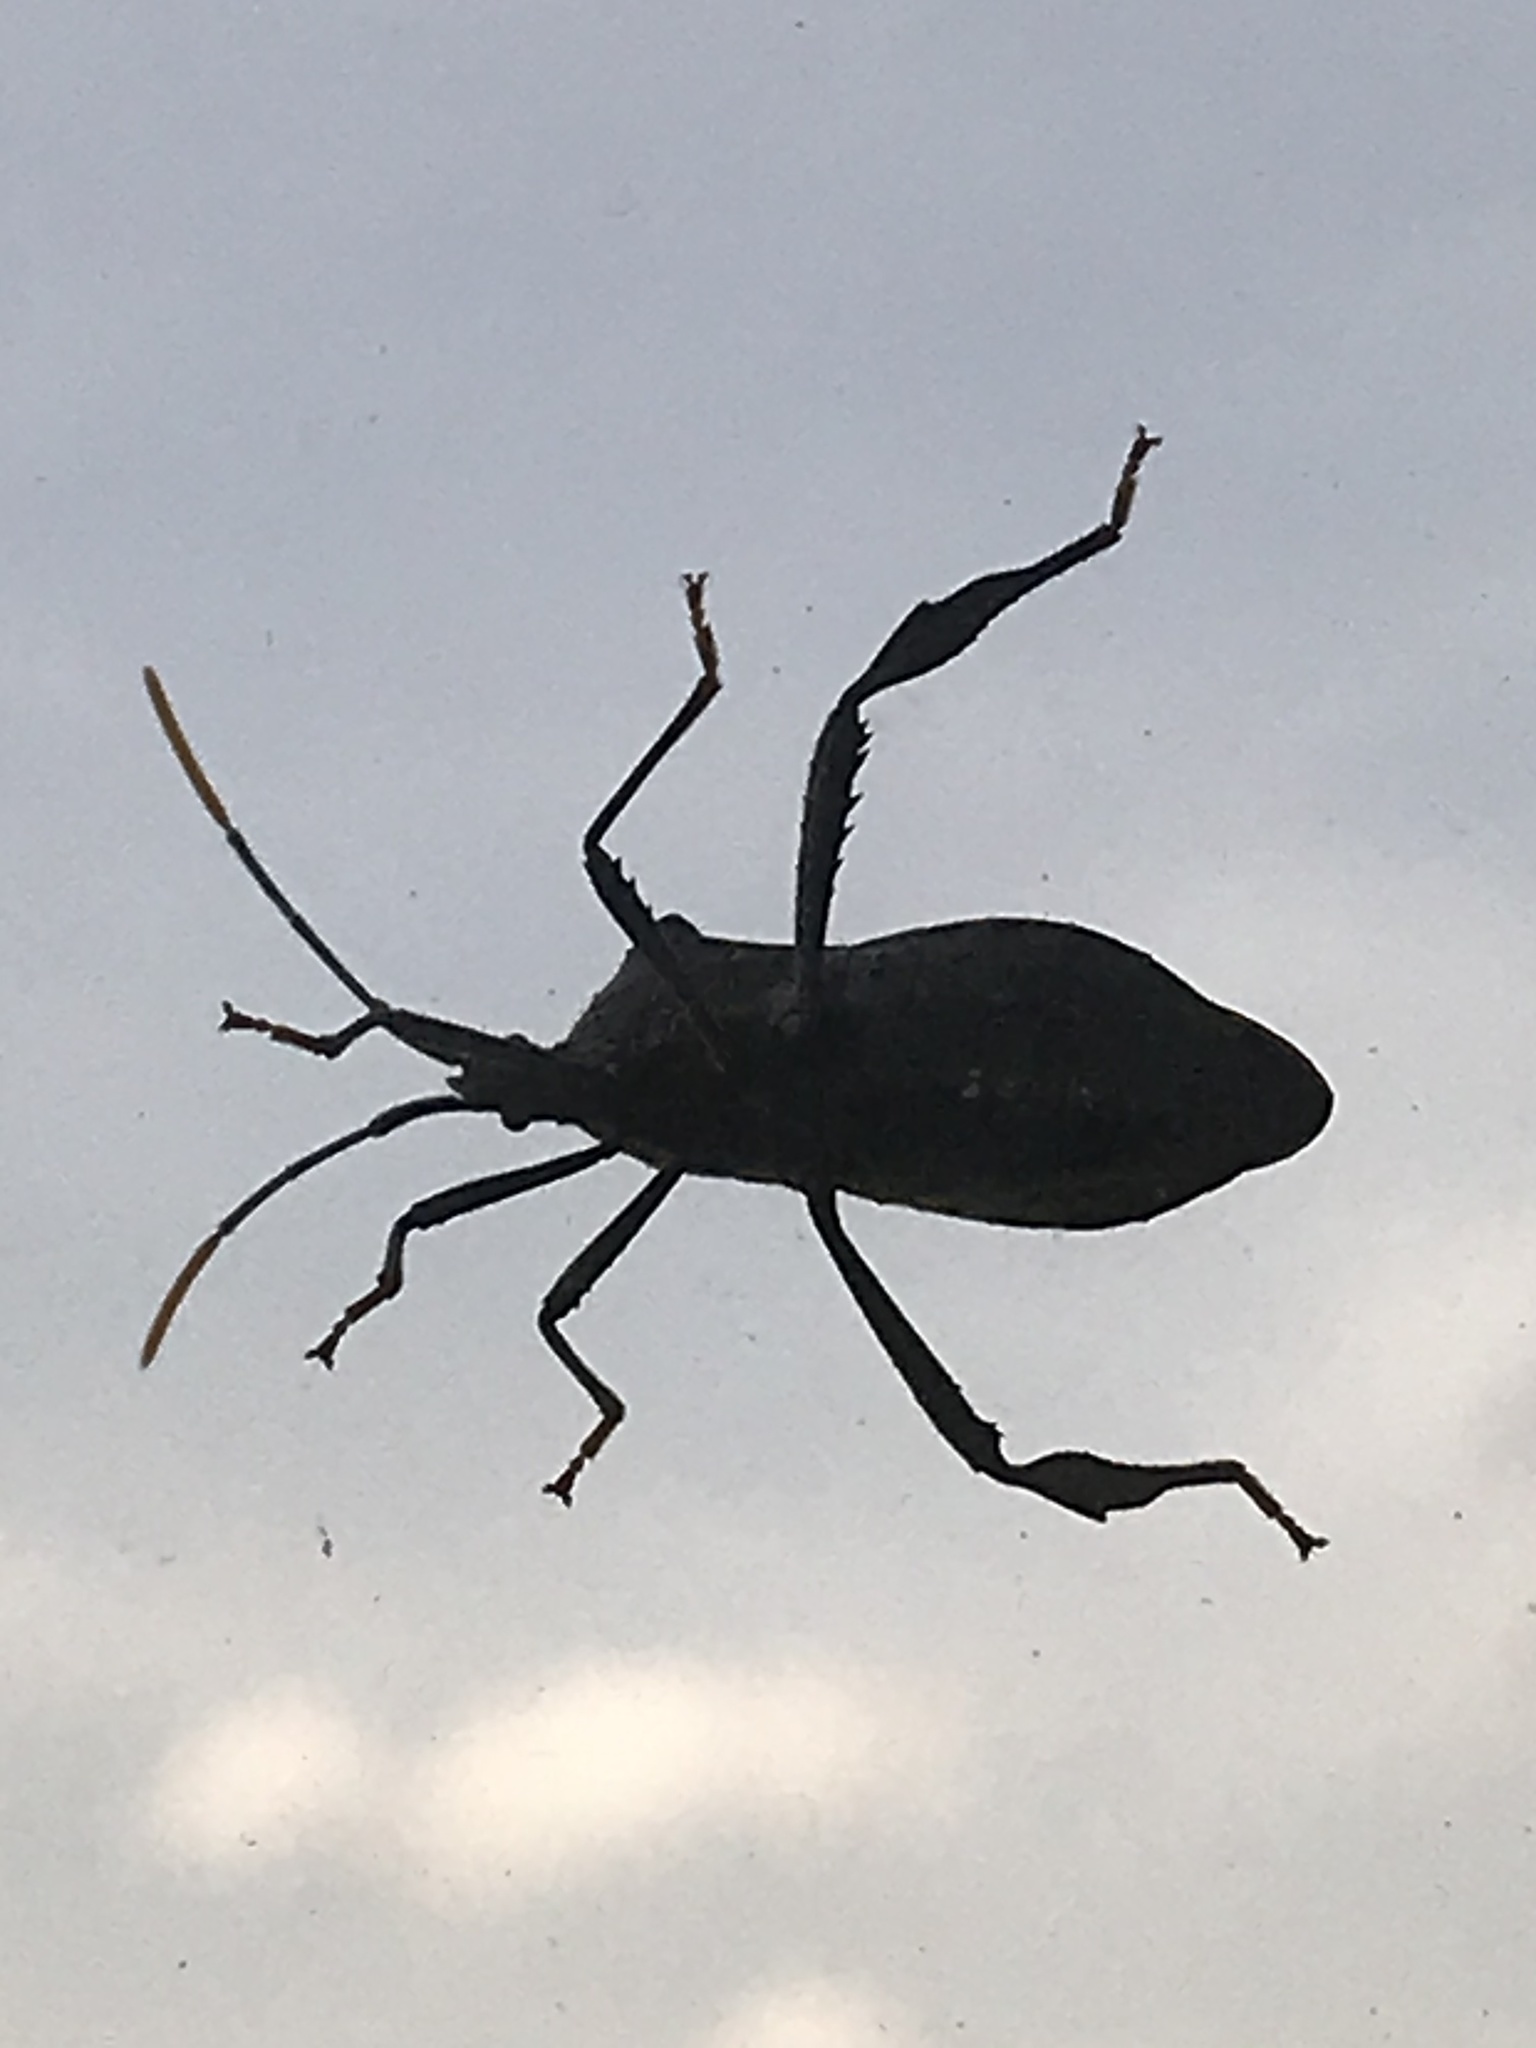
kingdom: Animalia
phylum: Arthropoda
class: Insecta
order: Hemiptera
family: Coreidae
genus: Acanthocephala
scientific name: Acanthocephala terminalis
